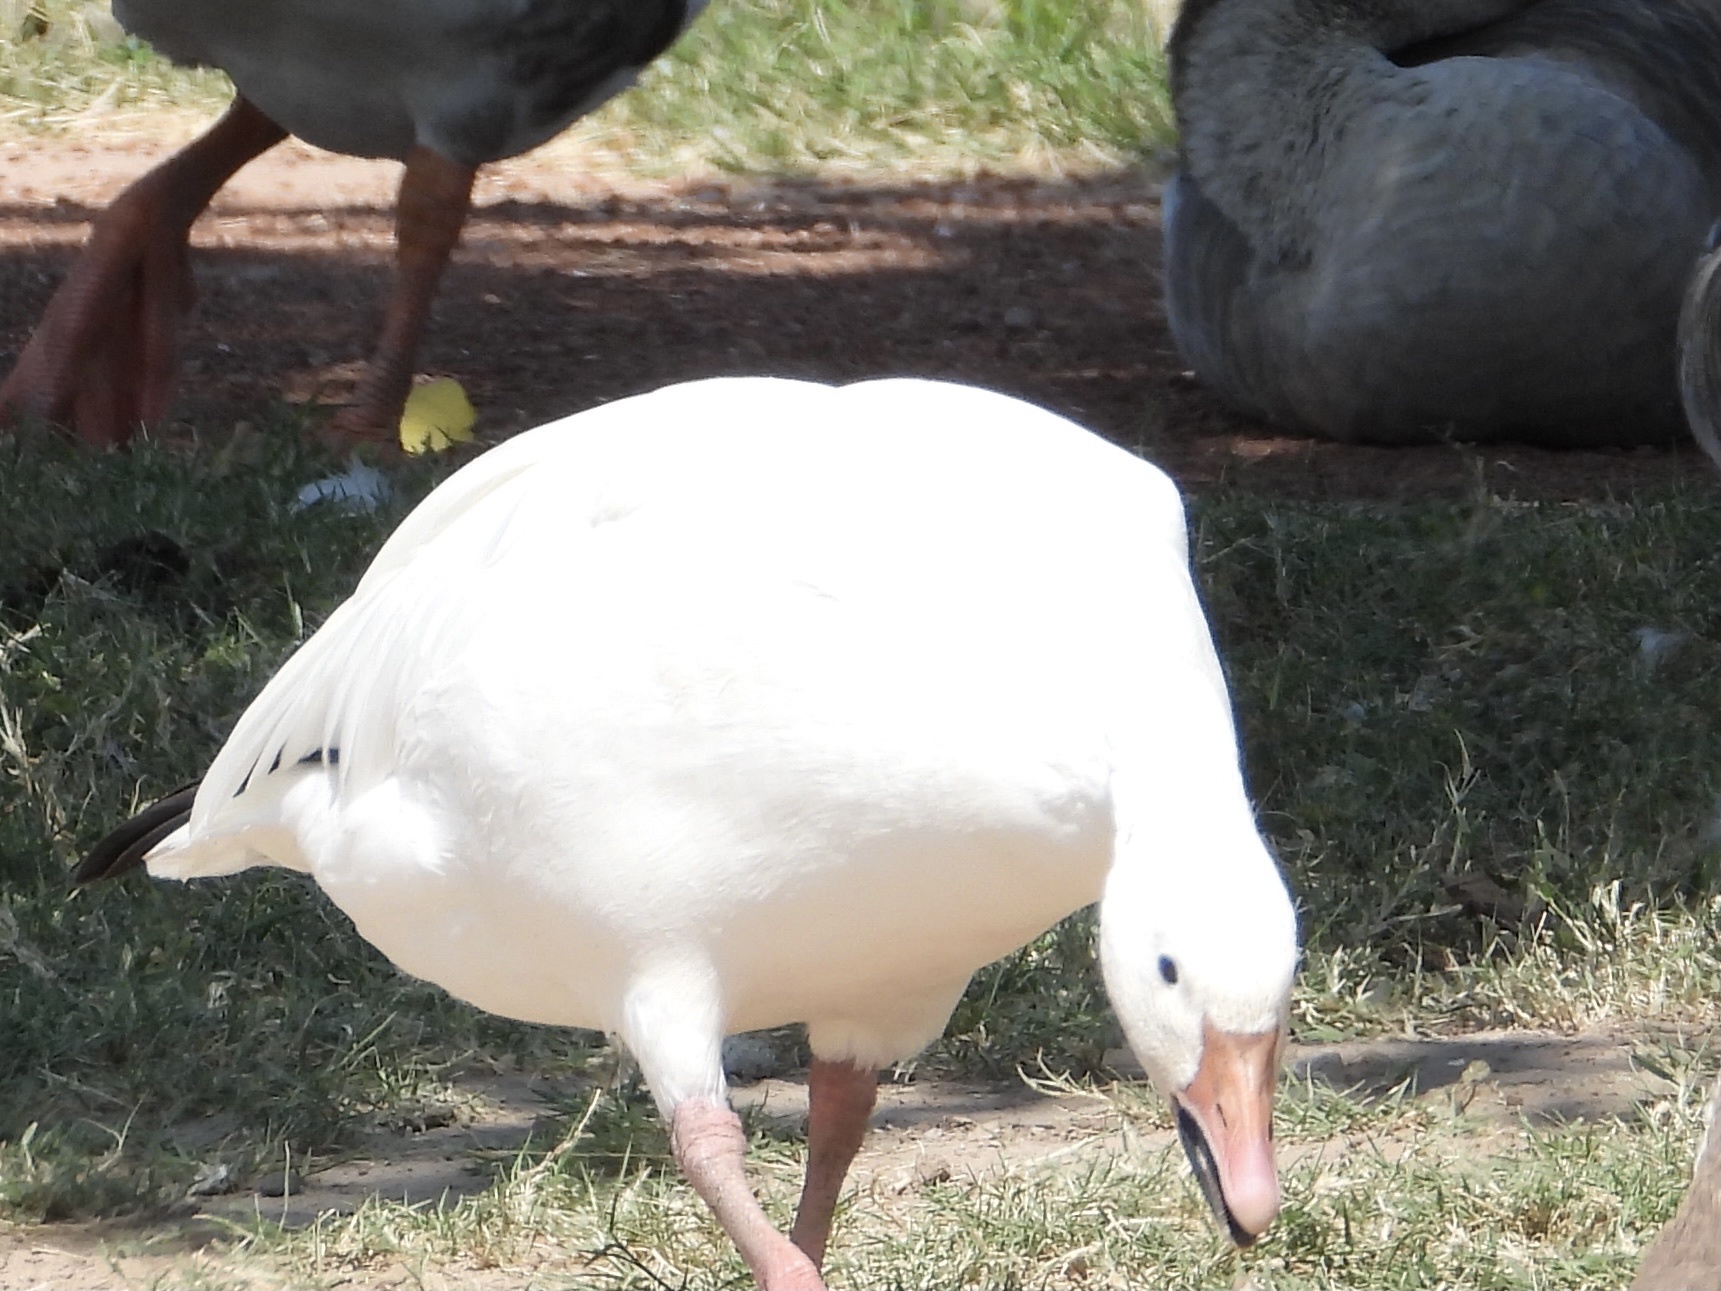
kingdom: Animalia
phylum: Chordata
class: Aves
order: Anseriformes
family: Anatidae
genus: Anser
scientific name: Anser caerulescens
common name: Snow goose
